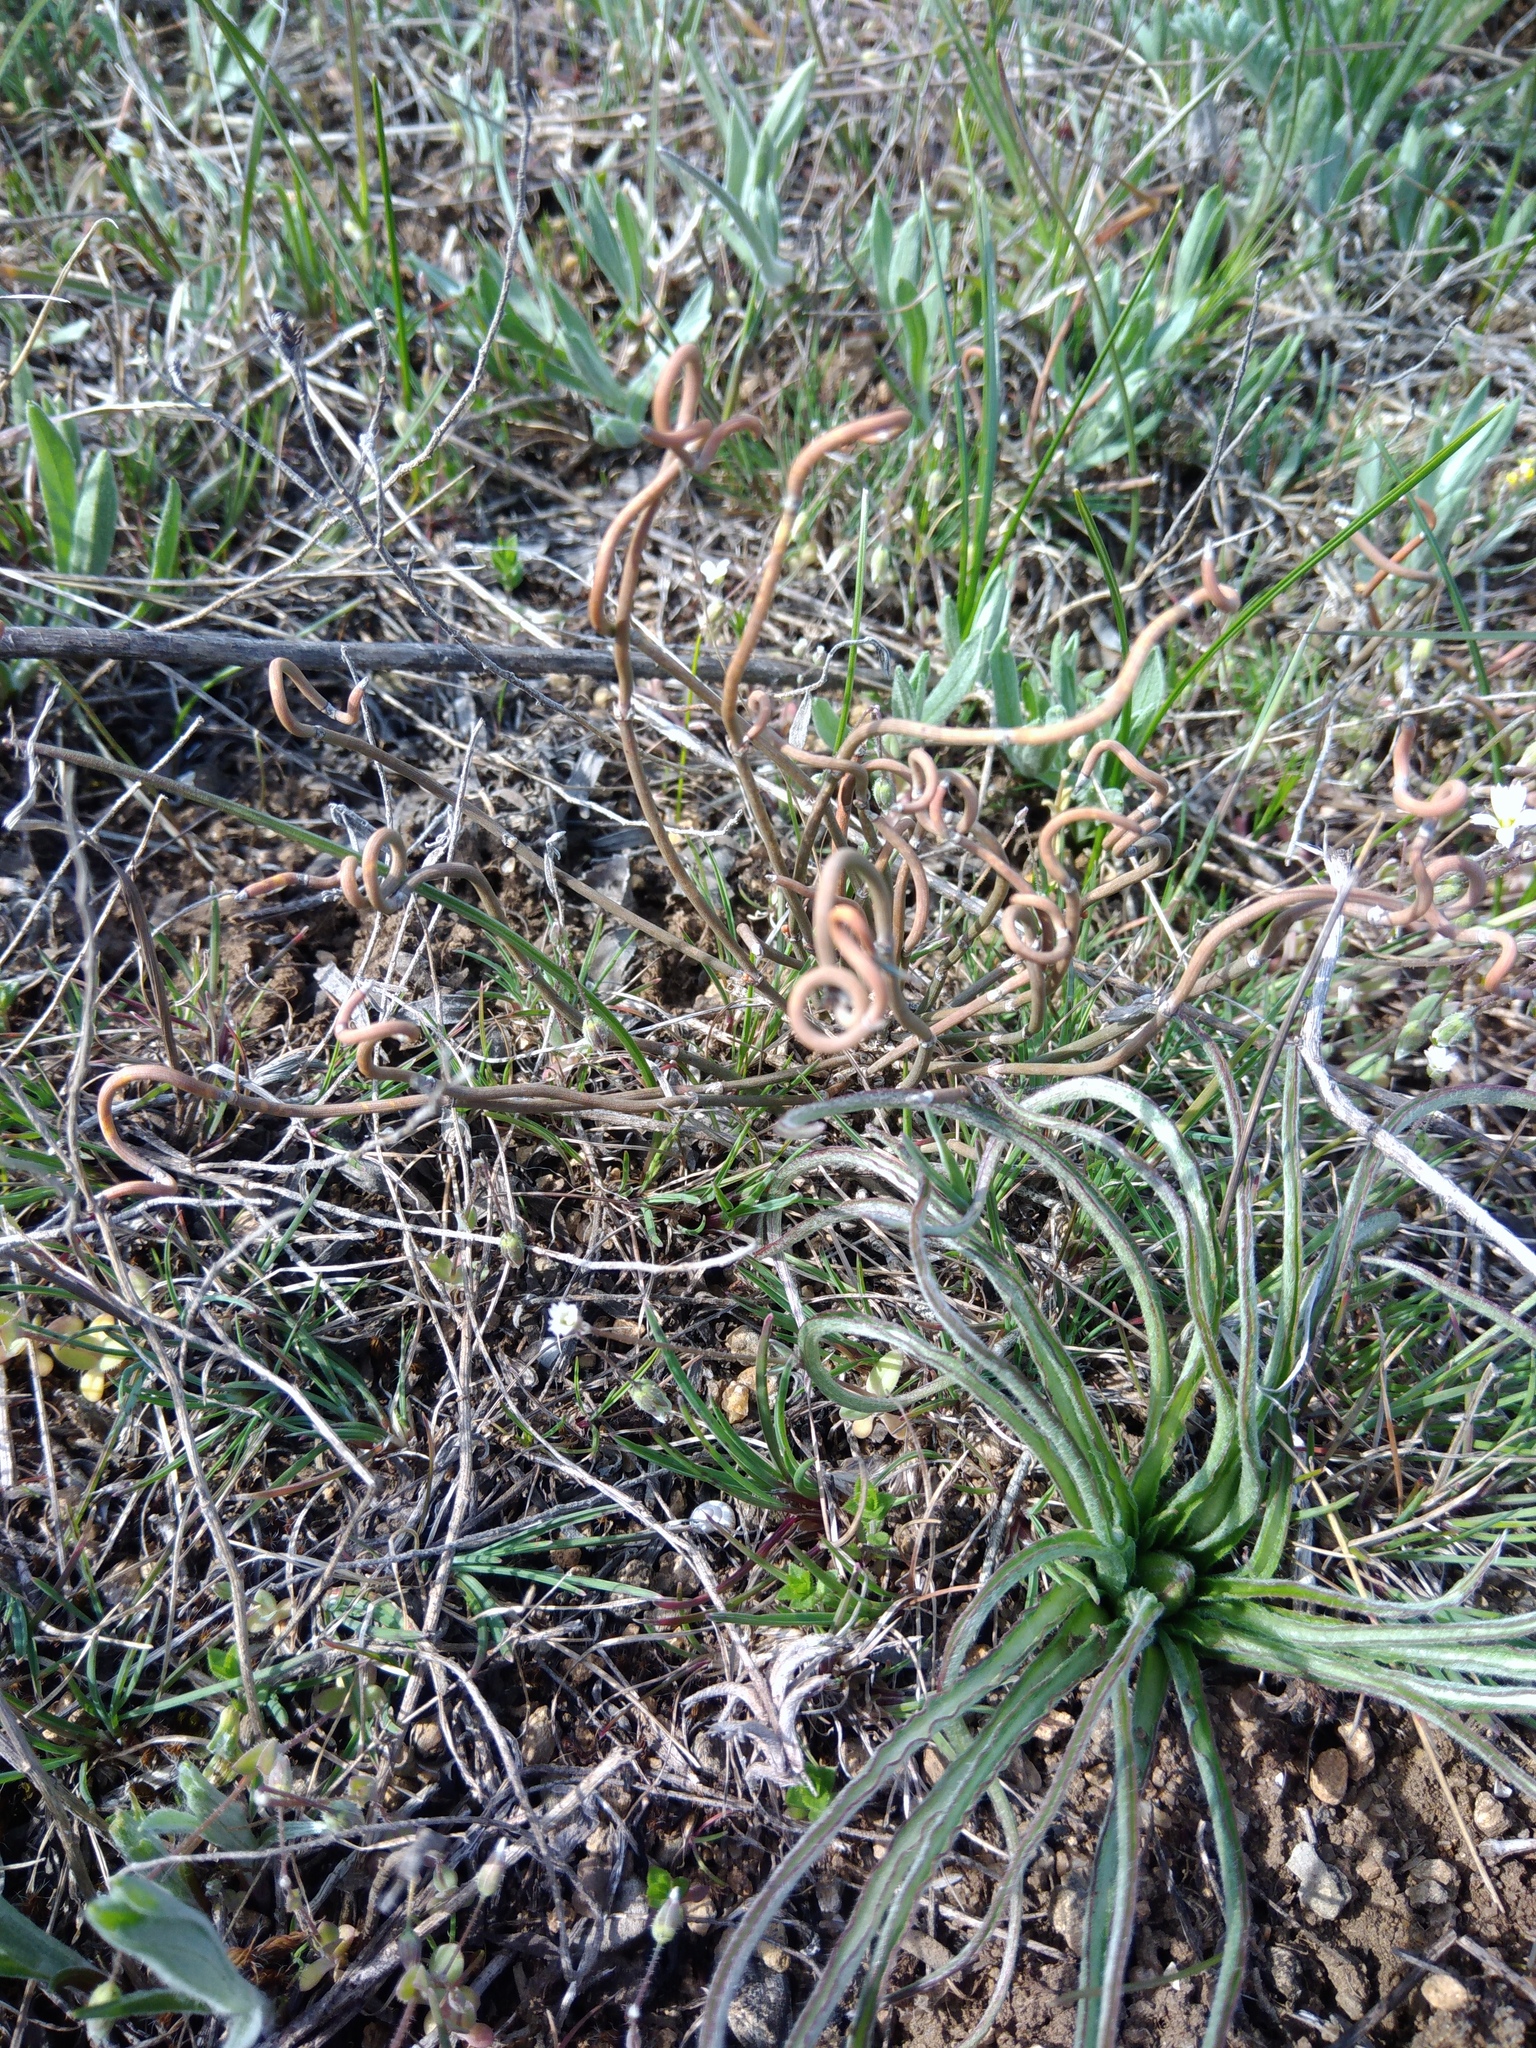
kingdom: Plantae
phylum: Tracheophyta
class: Gnetopsida
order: Ephedrales
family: Ephedraceae
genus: Ephedra
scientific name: Ephedra distachya
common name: Sea grape
